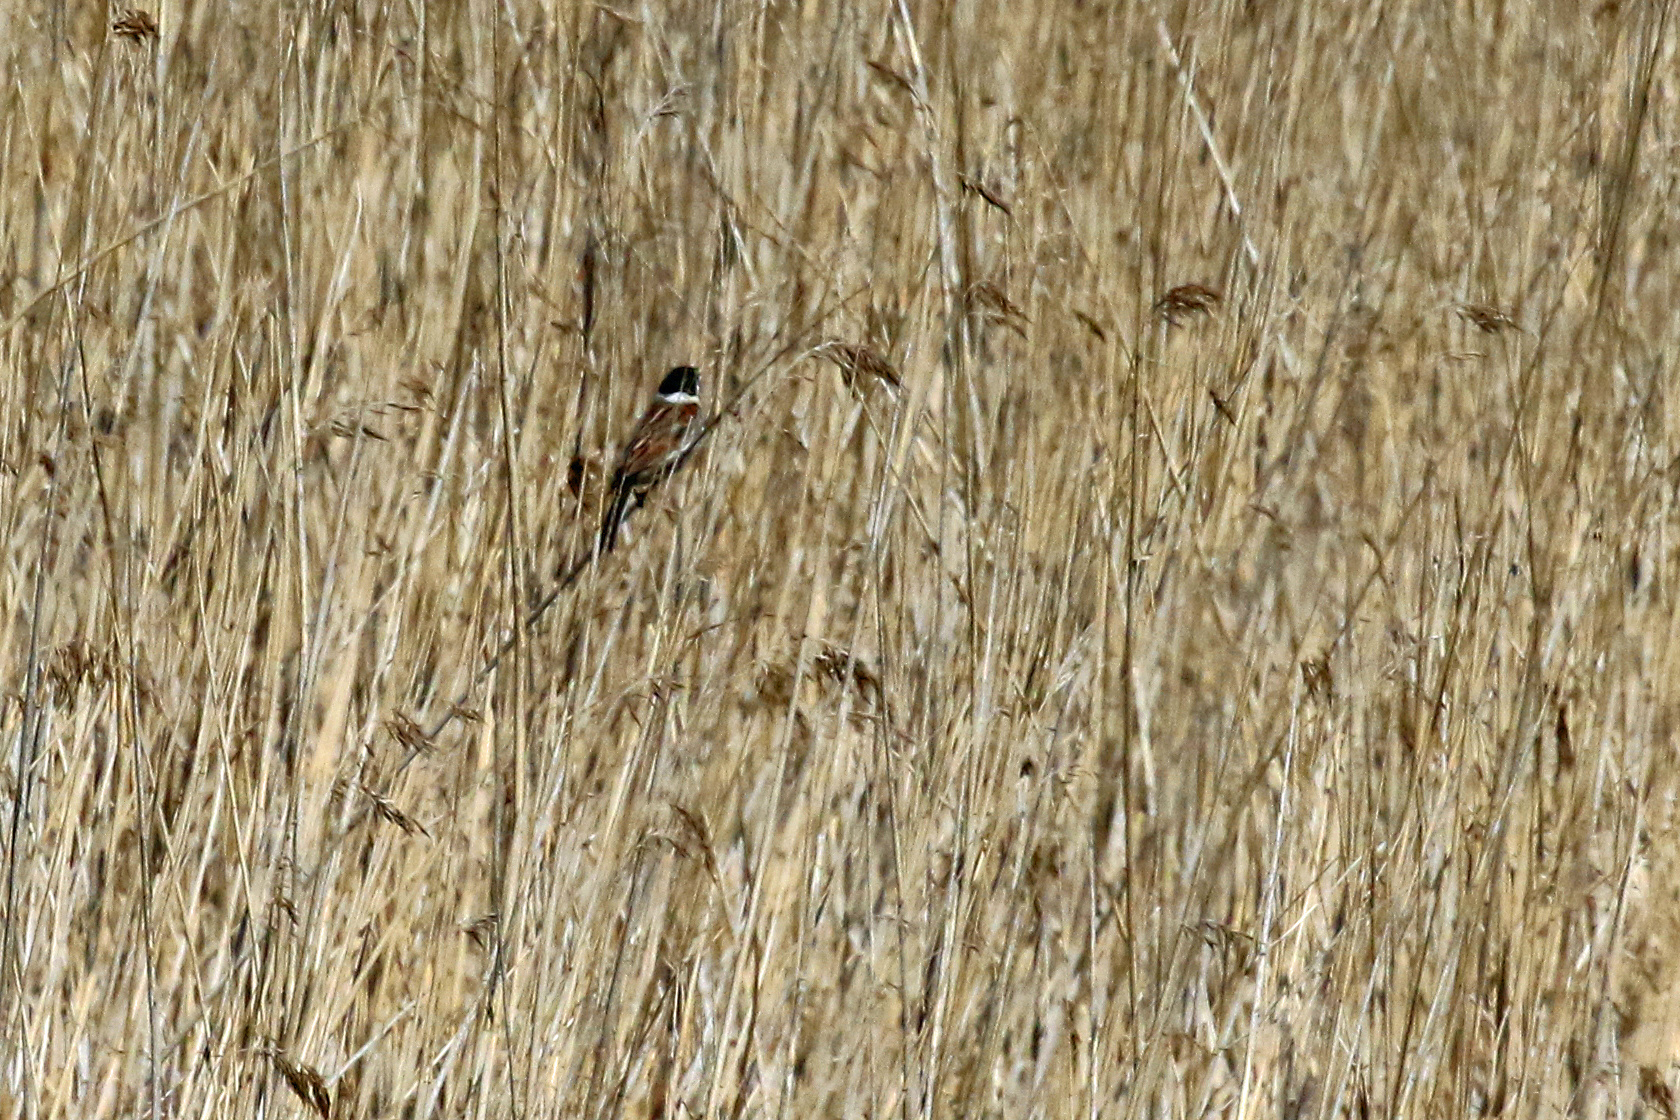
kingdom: Animalia
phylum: Chordata
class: Aves
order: Passeriformes
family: Emberizidae
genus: Emberiza
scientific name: Emberiza schoeniclus
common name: Reed bunting
